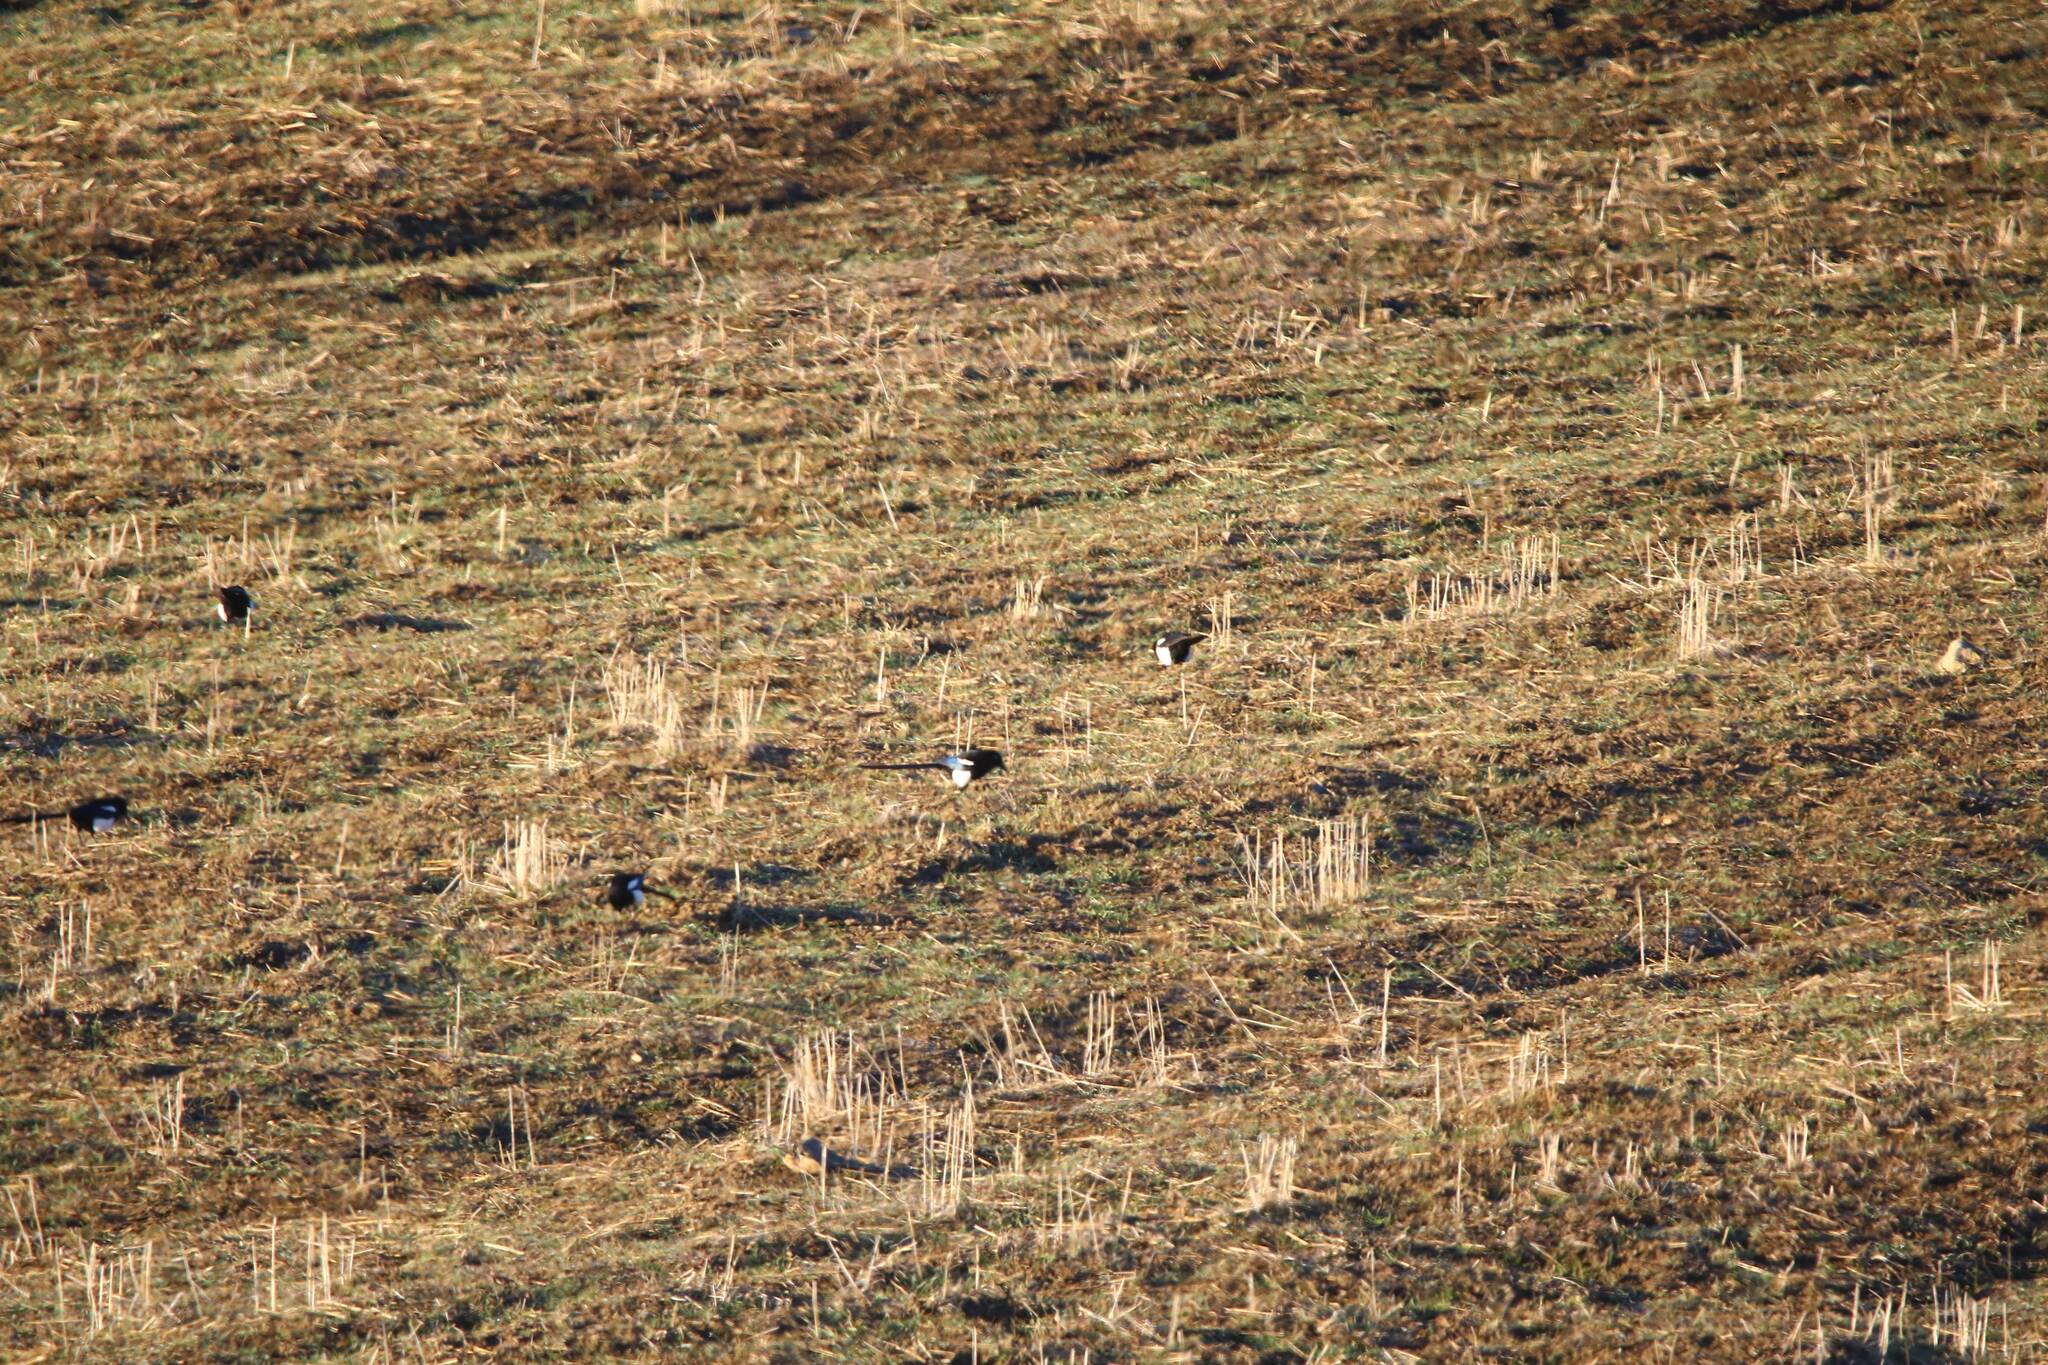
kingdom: Animalia
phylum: Chordata
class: Aves
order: Passeriformes
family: Corvidae
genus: Pica
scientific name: Pica mauritanica
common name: Maghreb magpie
